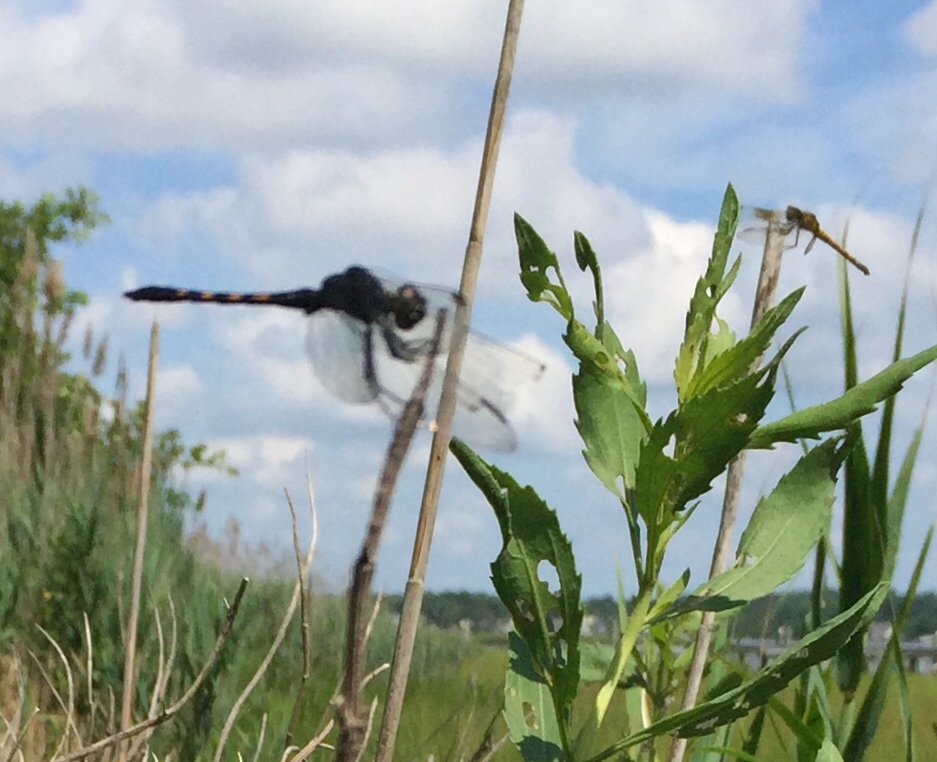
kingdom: Animalia
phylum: Arthropoda
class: Insecta
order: Odonata
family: Libellulidae
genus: Erythrodiplax
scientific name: Erythrodiplax berenice
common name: Seaside dragonlet
